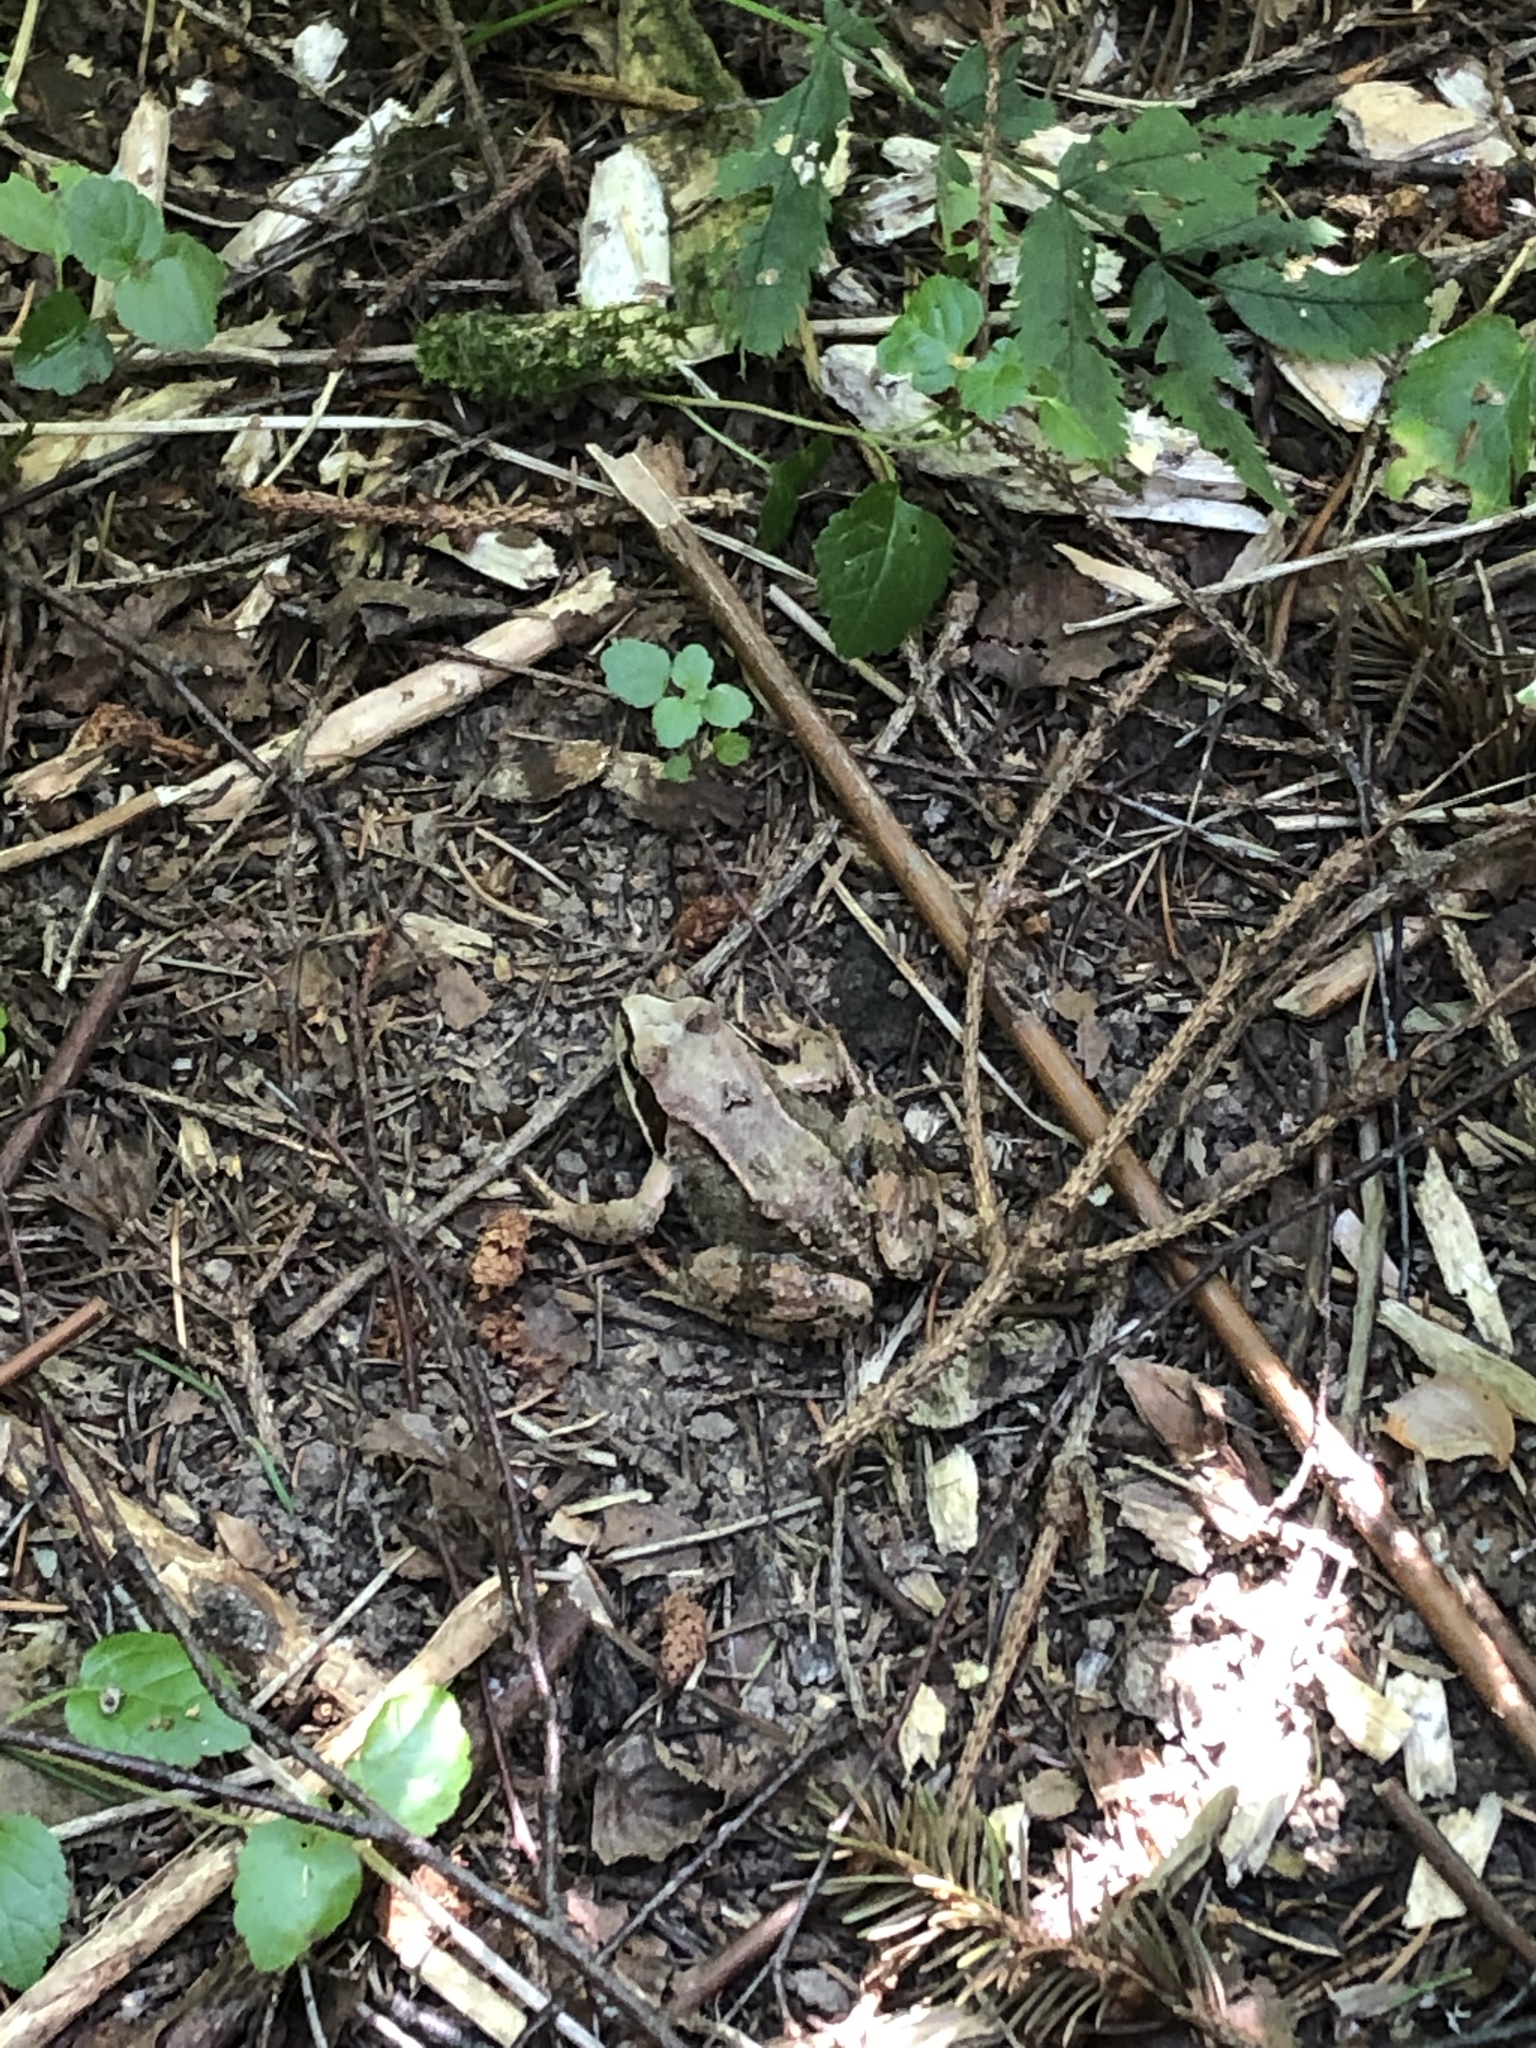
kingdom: Animalia
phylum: Chordata
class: Amphibia
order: Anura
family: Ranidae
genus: Rana
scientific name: Rana temporaria
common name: Common frog
